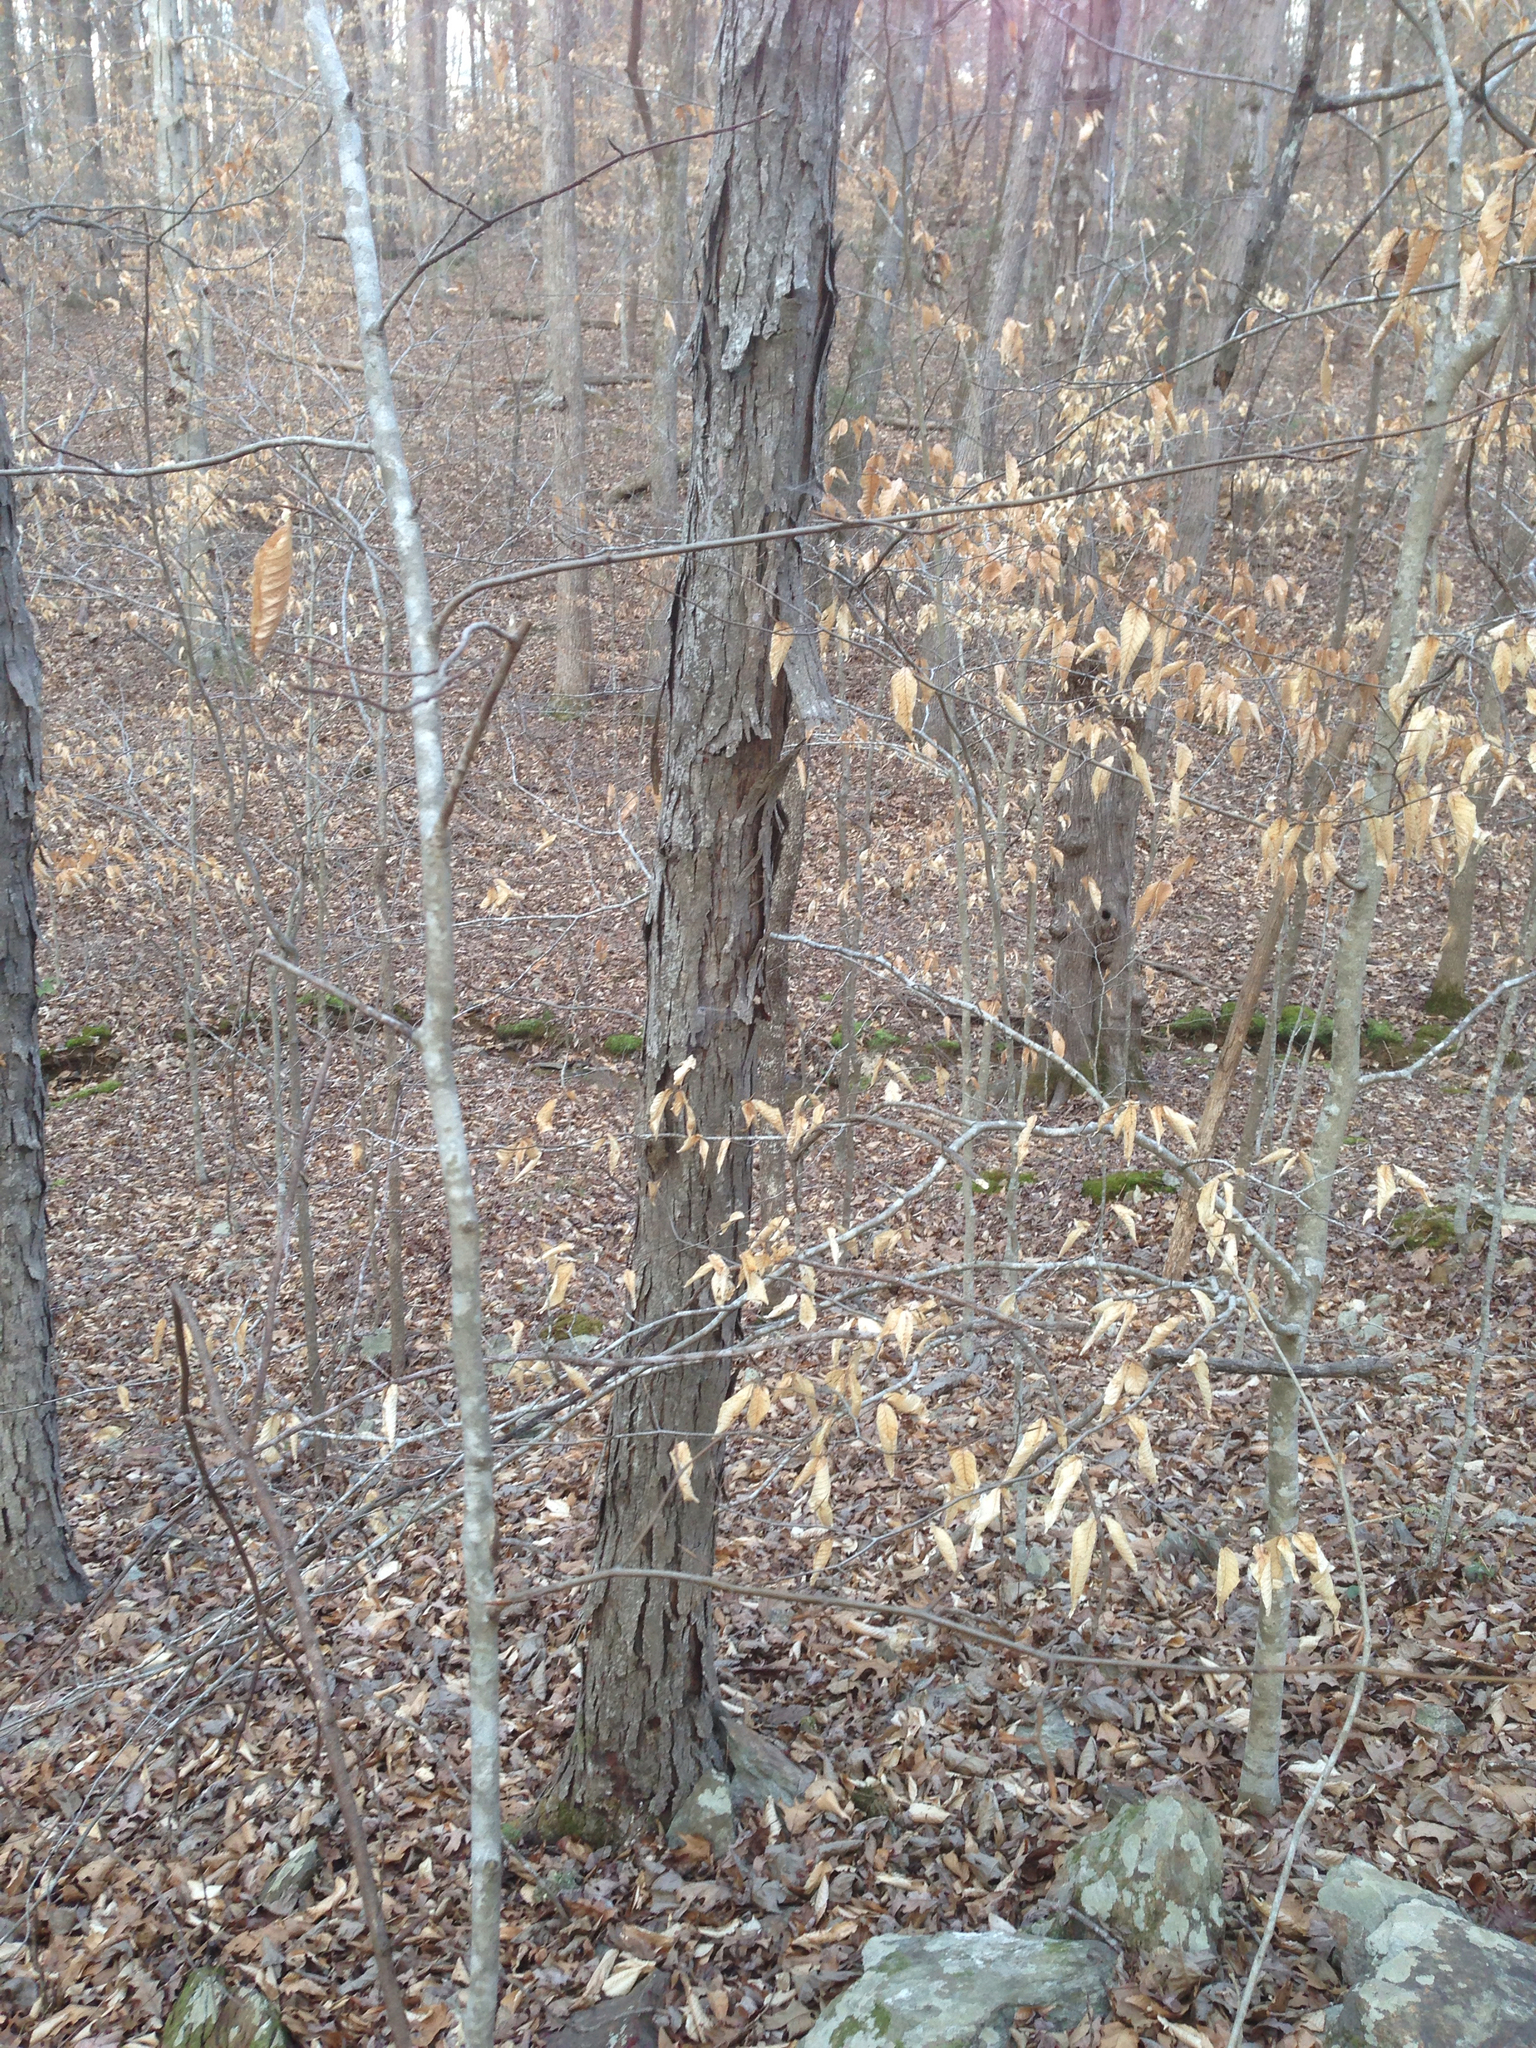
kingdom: Plantae
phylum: Tracheophyta
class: Magnoliopsida
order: Fagales
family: Juglandaceae
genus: Carya
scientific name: Carya ovata
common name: Shagbark hickory
